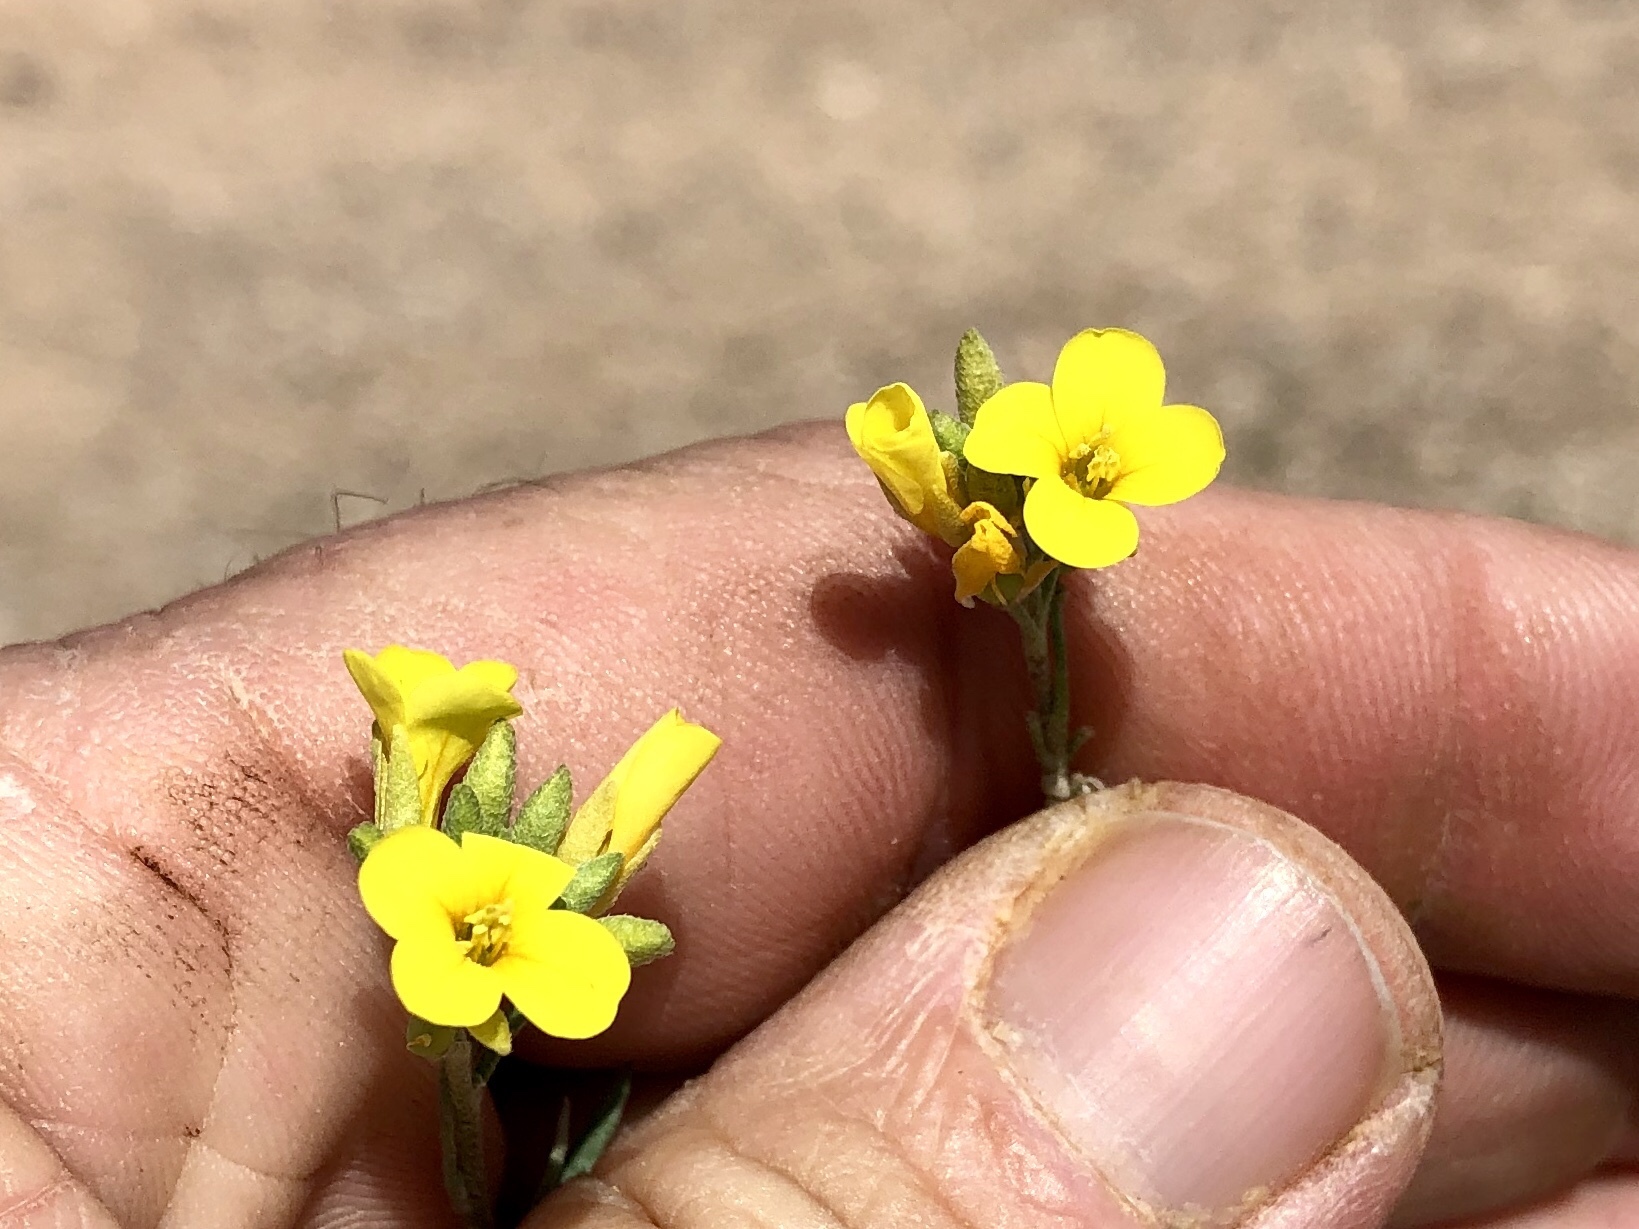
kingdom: Plantae
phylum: Tracheophyta
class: Magnoliopsida
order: Brassicales
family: Brassicaceae
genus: Physaria
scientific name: Physaria gordonii
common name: Gordon's bladderpod
